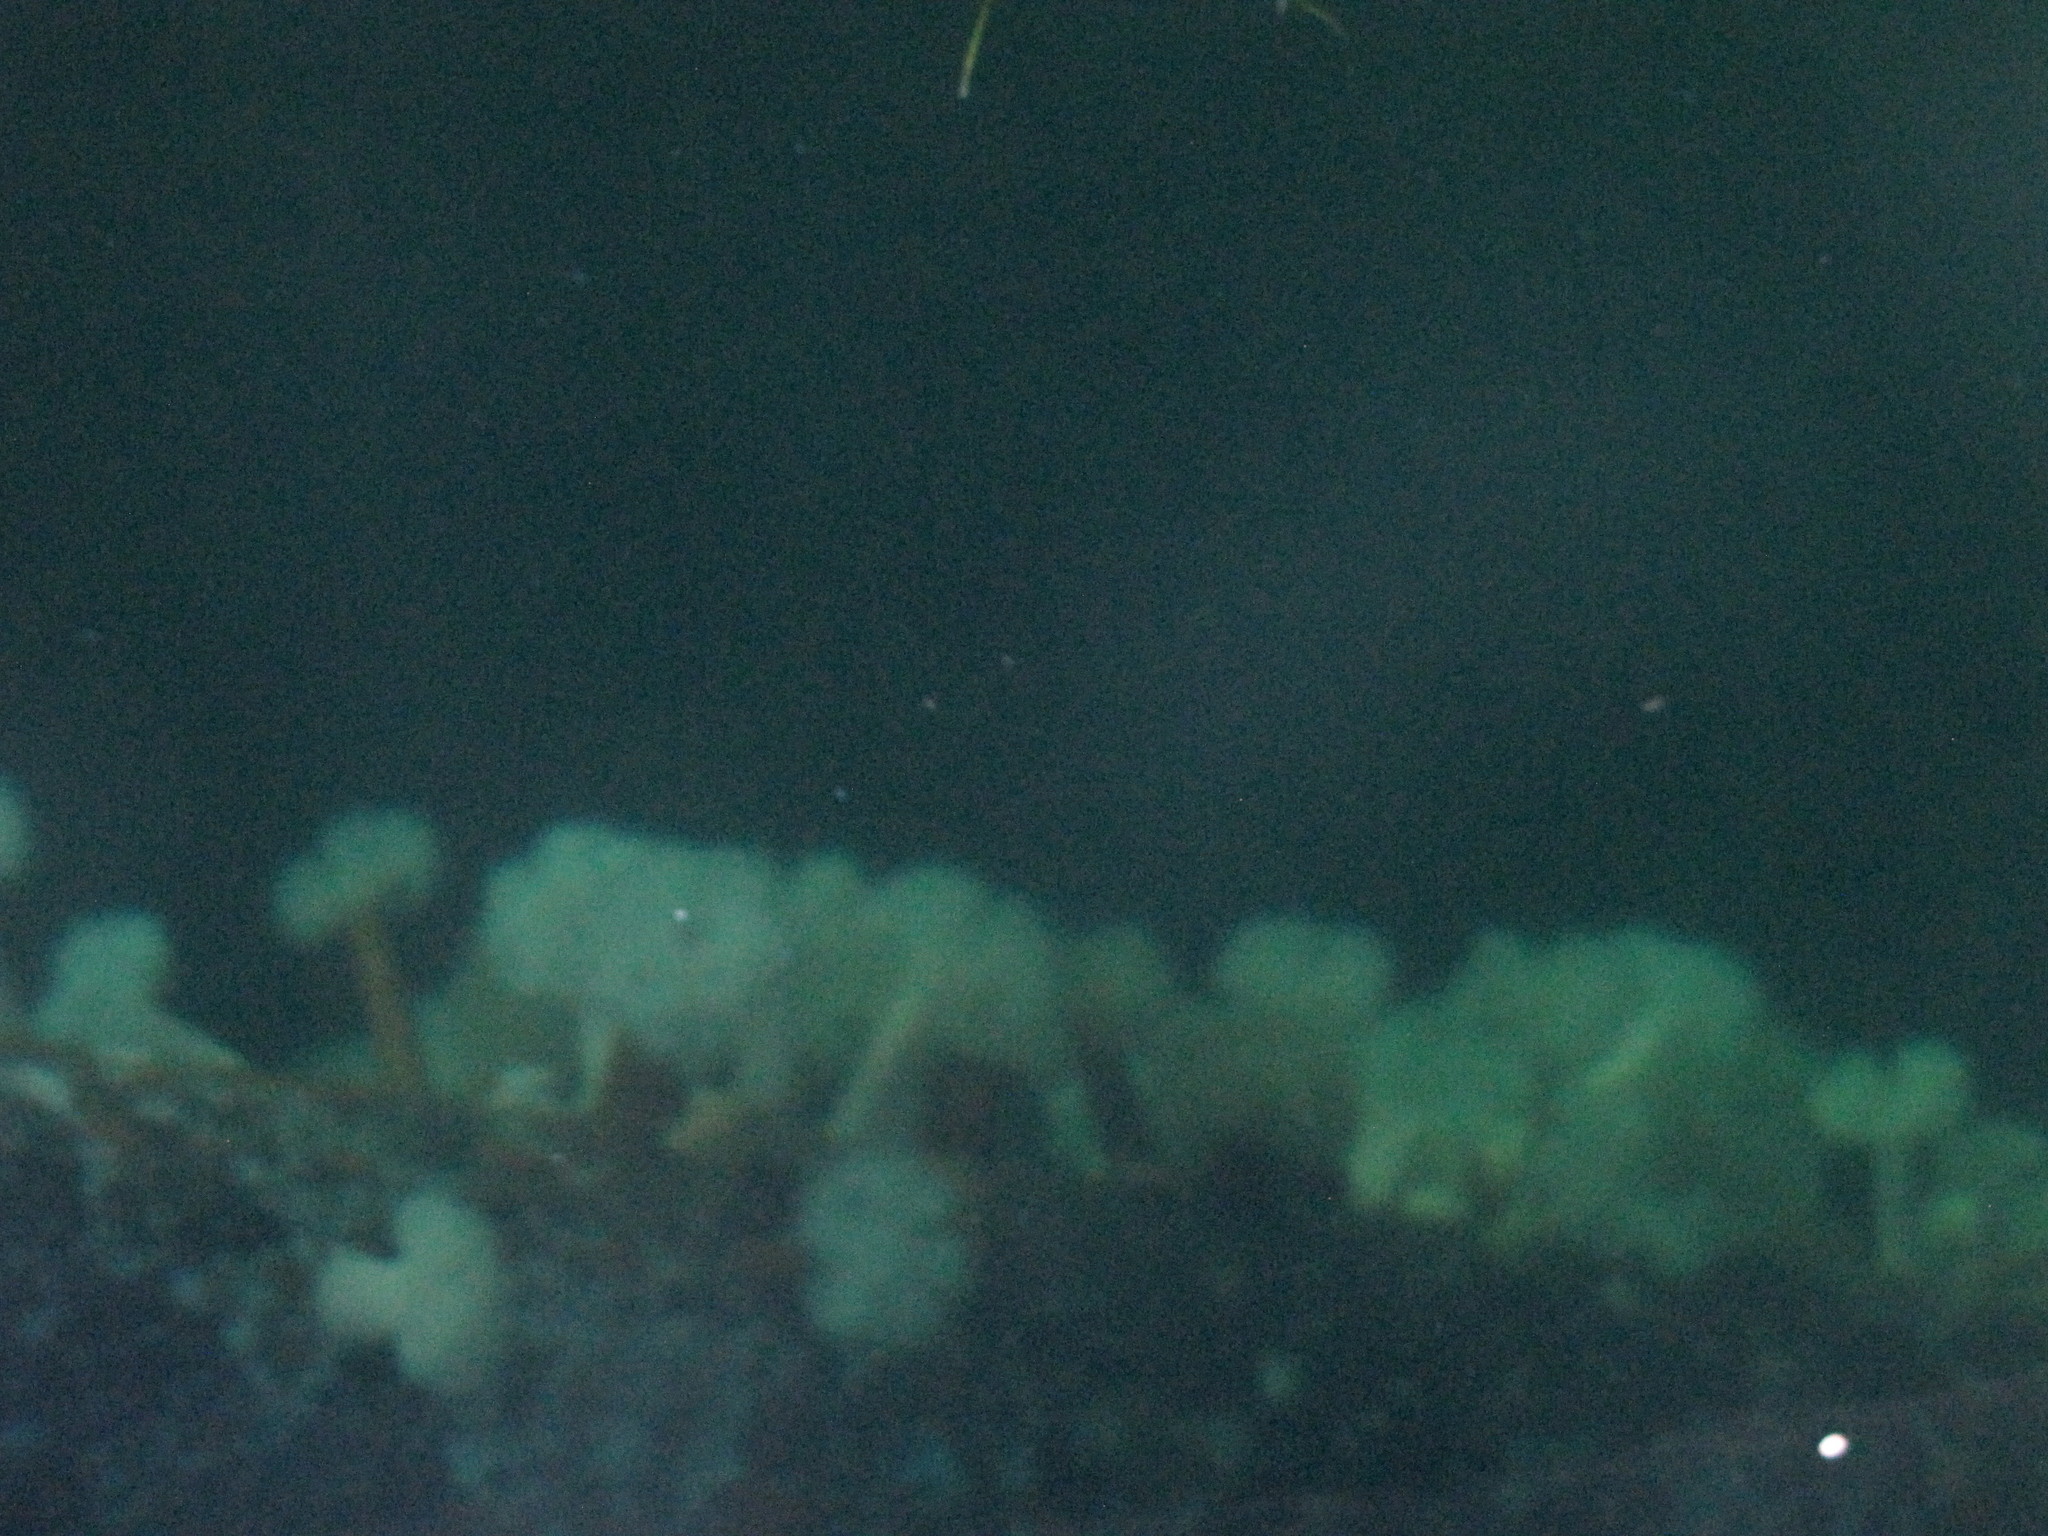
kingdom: Animalia
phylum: Cnidaria
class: Anthozoa
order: Actiniaria
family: Metridiidae
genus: Metridium
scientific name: Metridium senile
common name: Clonal plumose anemone
